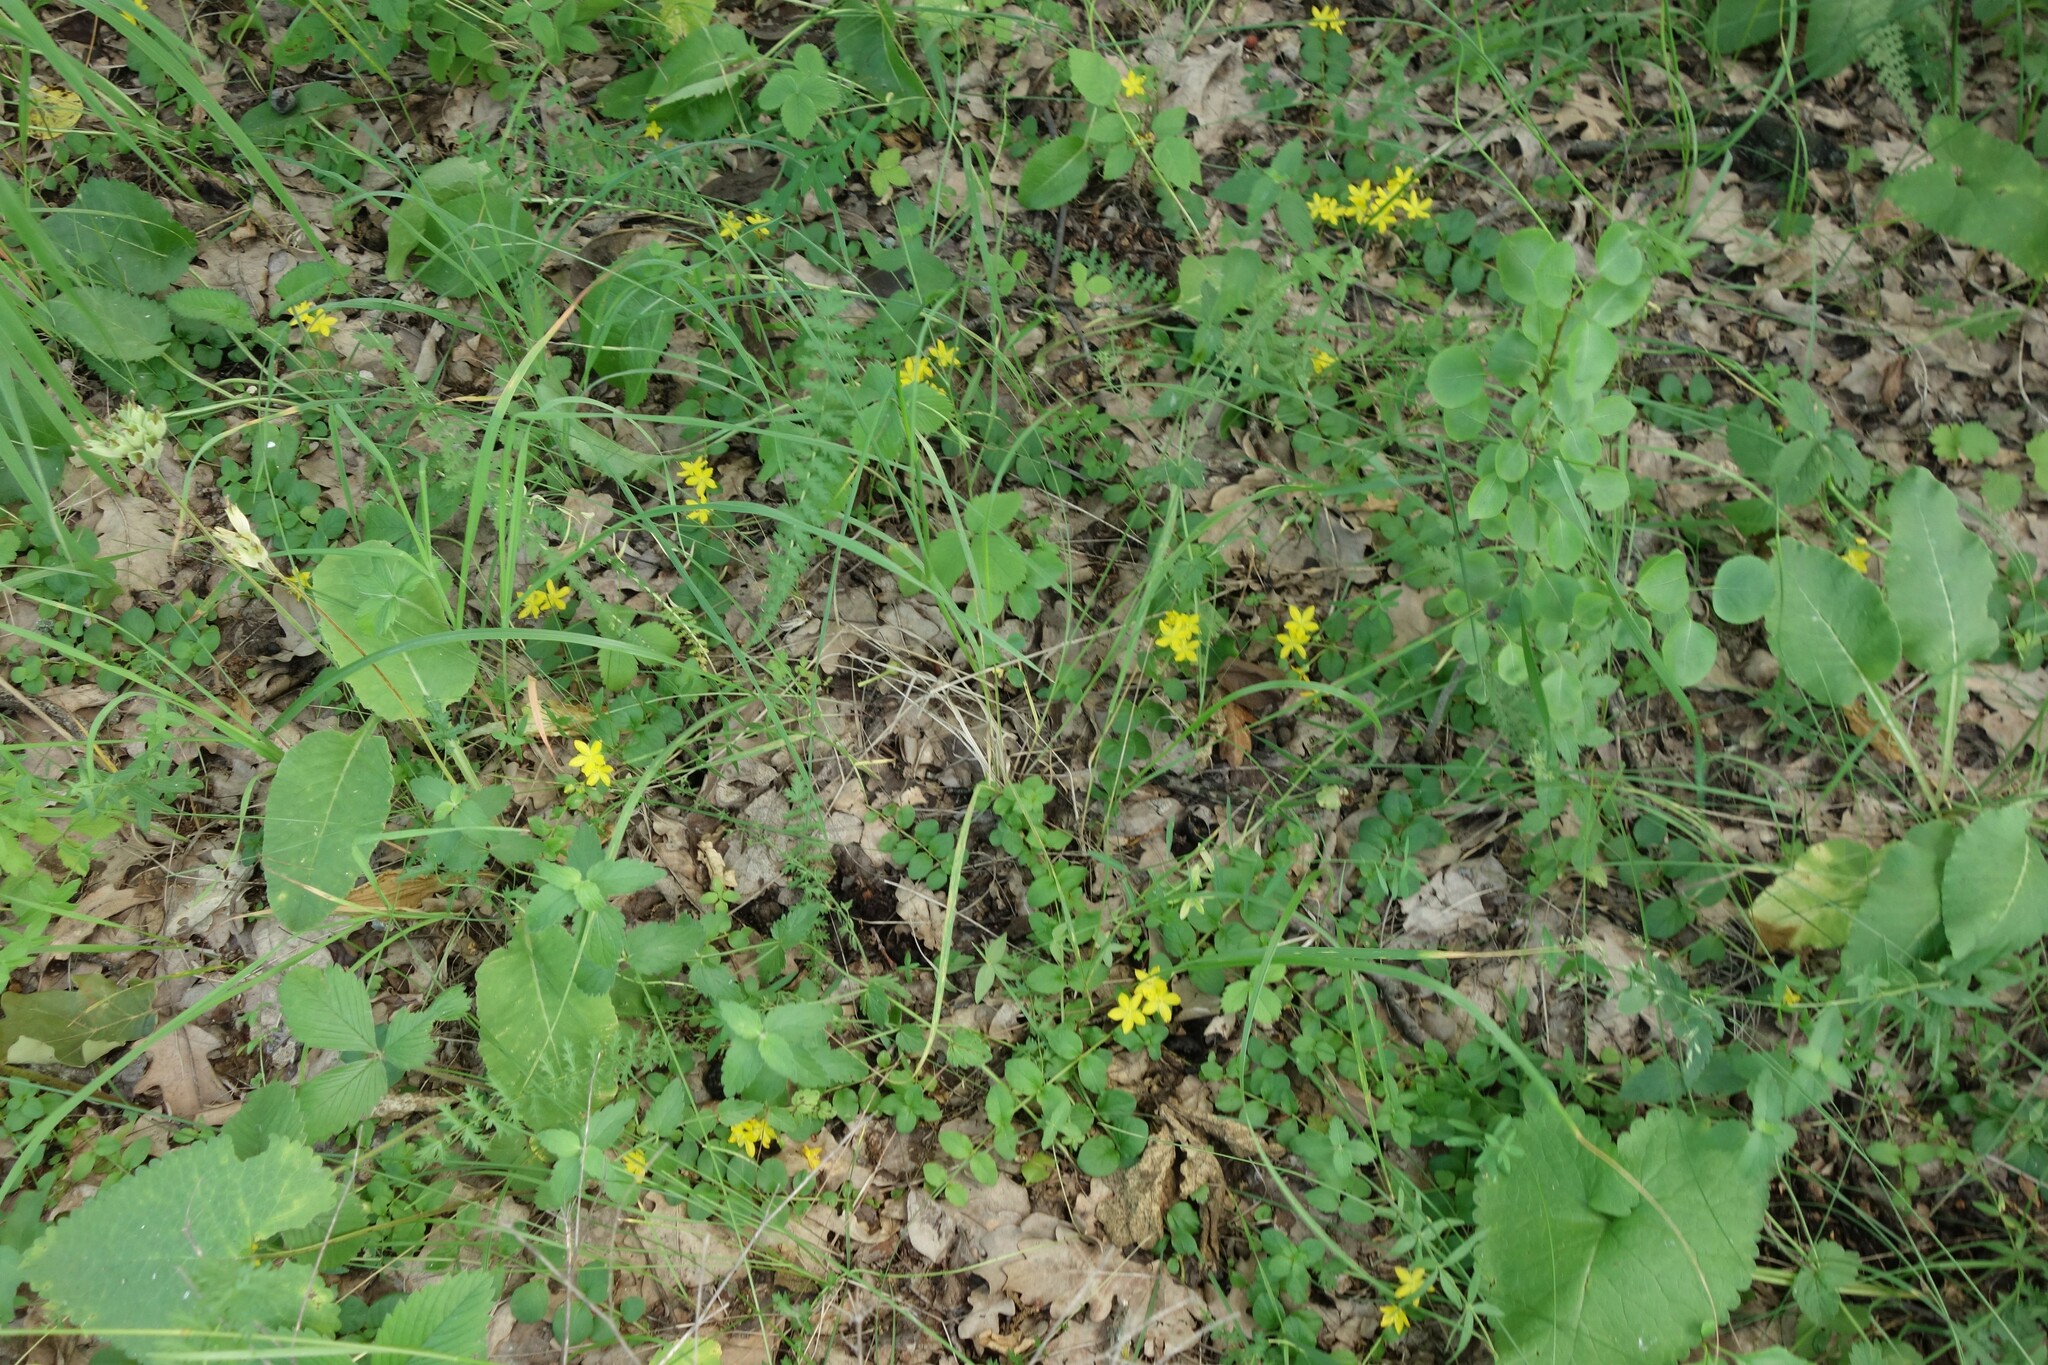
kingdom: Plantae
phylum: Tracheophyta
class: Magnoliopsida
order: Ericales
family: Primulaceae
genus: Lysimachia
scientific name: Lysimachia nummularia
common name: Moneywort
